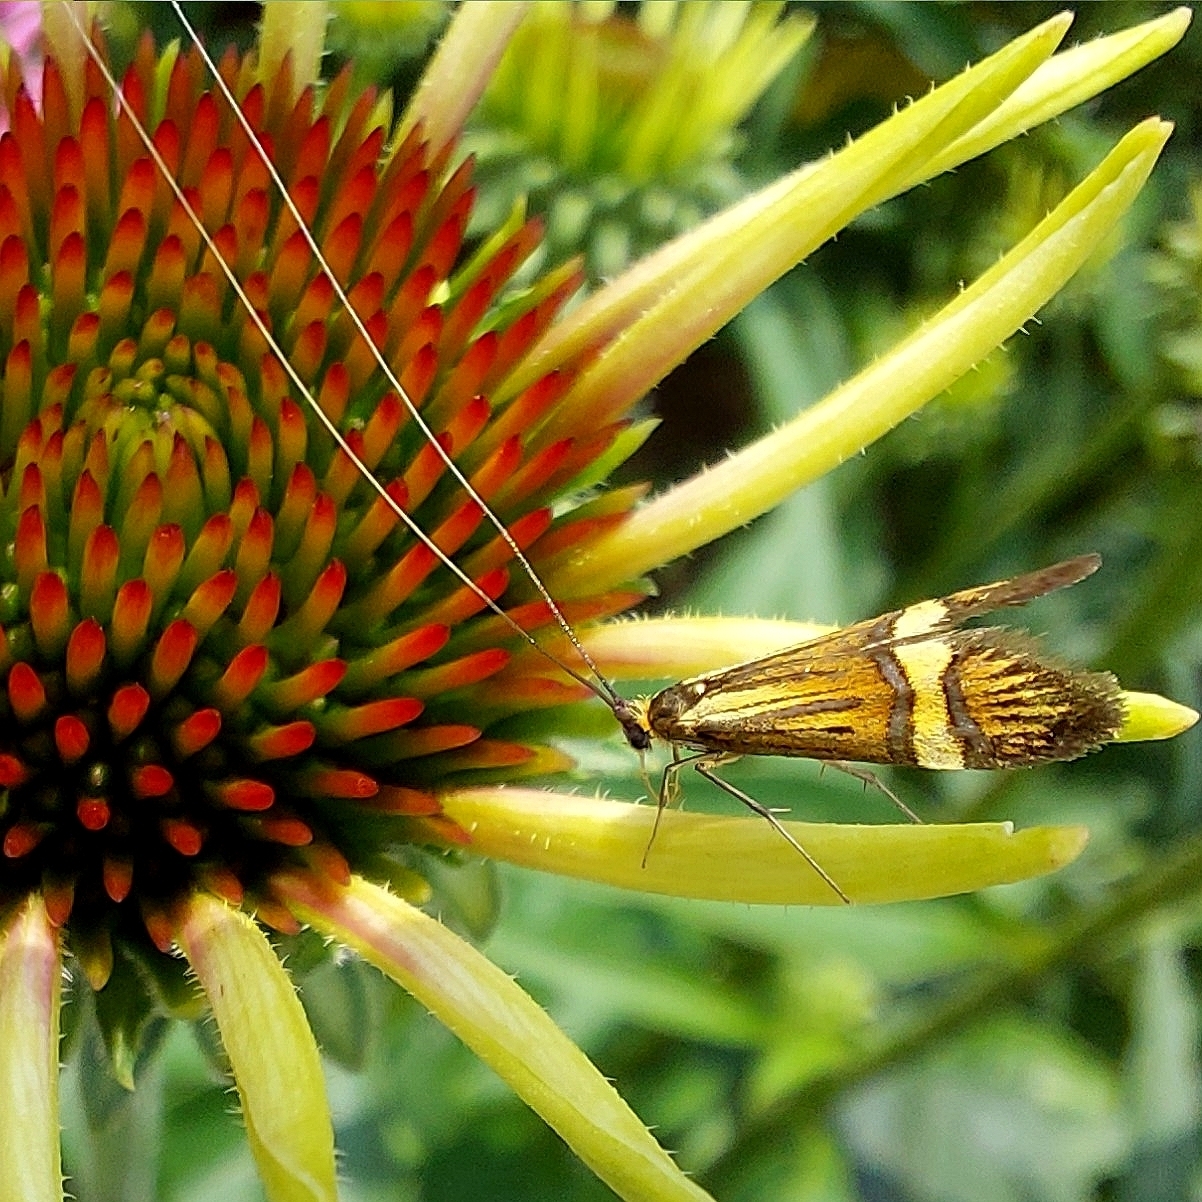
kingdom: Animalia
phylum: Arthropoda
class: Insecta
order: Lepidoptera
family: Adelidae
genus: Nemophora
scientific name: Nemophora degeerella
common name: Yellow-barred long-horn
